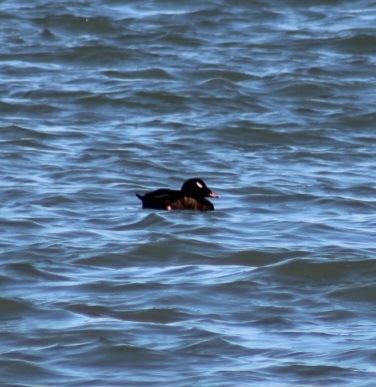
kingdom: Animalia
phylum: Chordata
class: Aves
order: Anseriformes
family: Anatidae
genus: Melanitta
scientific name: Melanitta deglandi
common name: White-winged scoter
